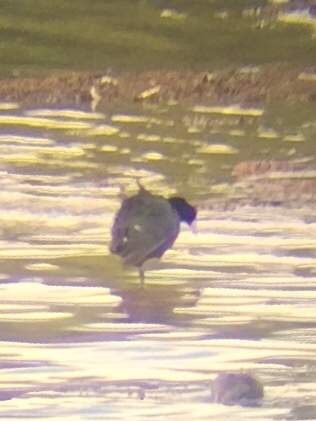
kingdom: Animalia
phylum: Chordata
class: Aves
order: Gruiformes
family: Rallidae
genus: Fulica
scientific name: Fulica americana
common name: American coot
